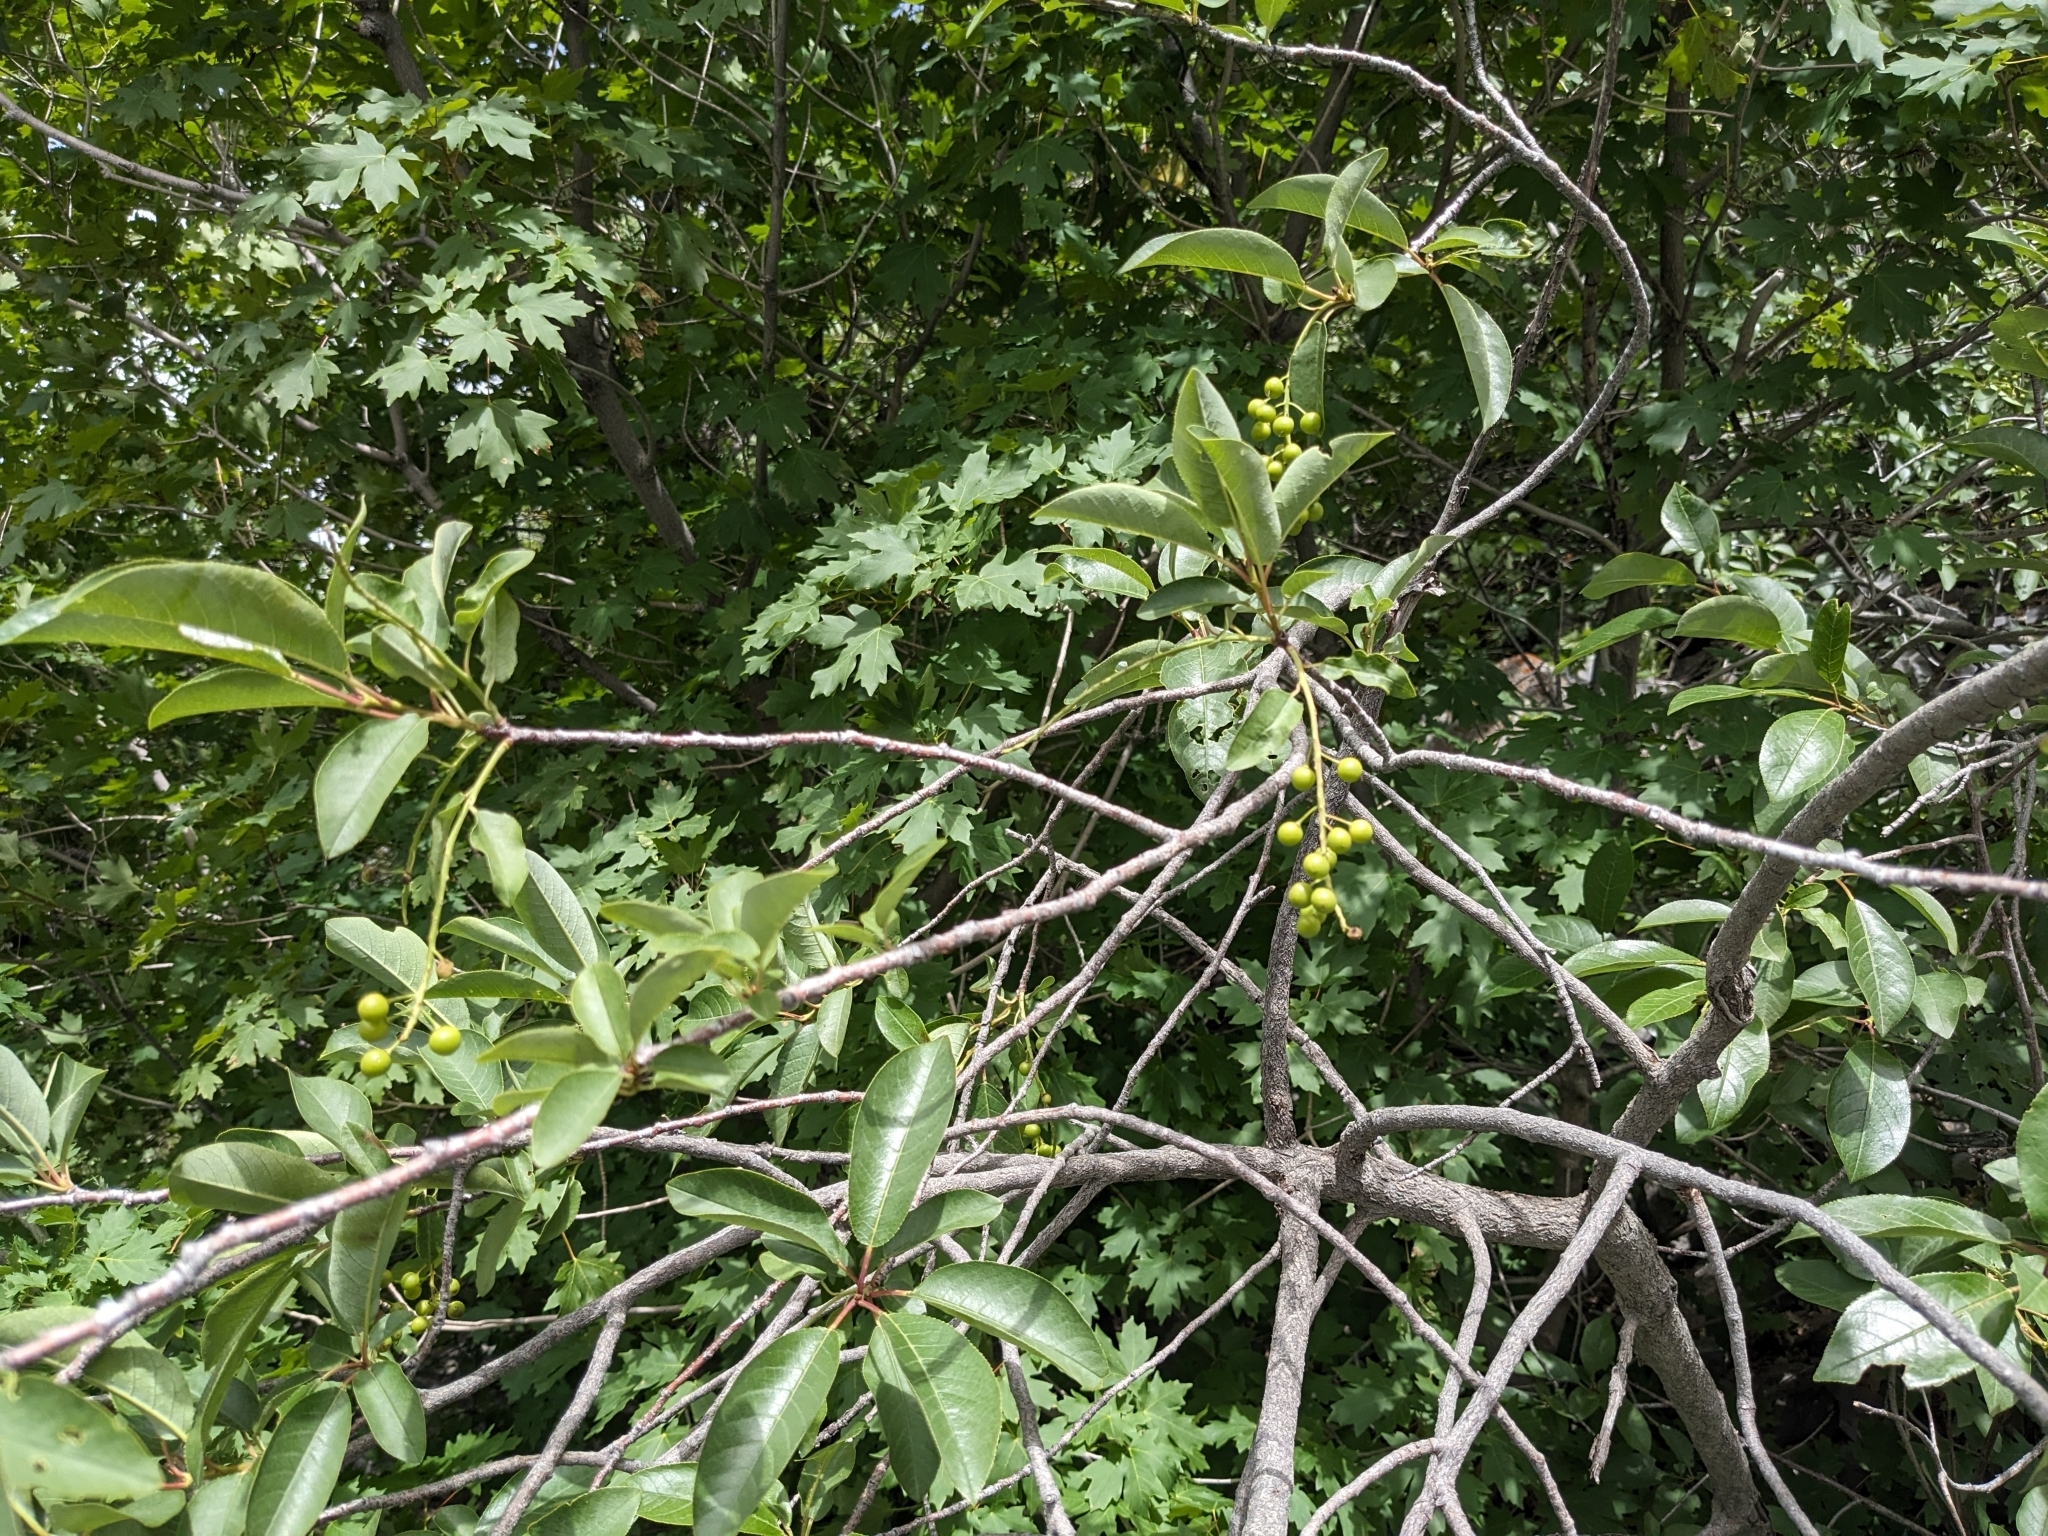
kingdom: Plantae
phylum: Tracheophyta
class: Magnoliopsida
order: Rosales
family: Rosaceae
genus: Prunus
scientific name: Prunus virginiana
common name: Chokecherry
